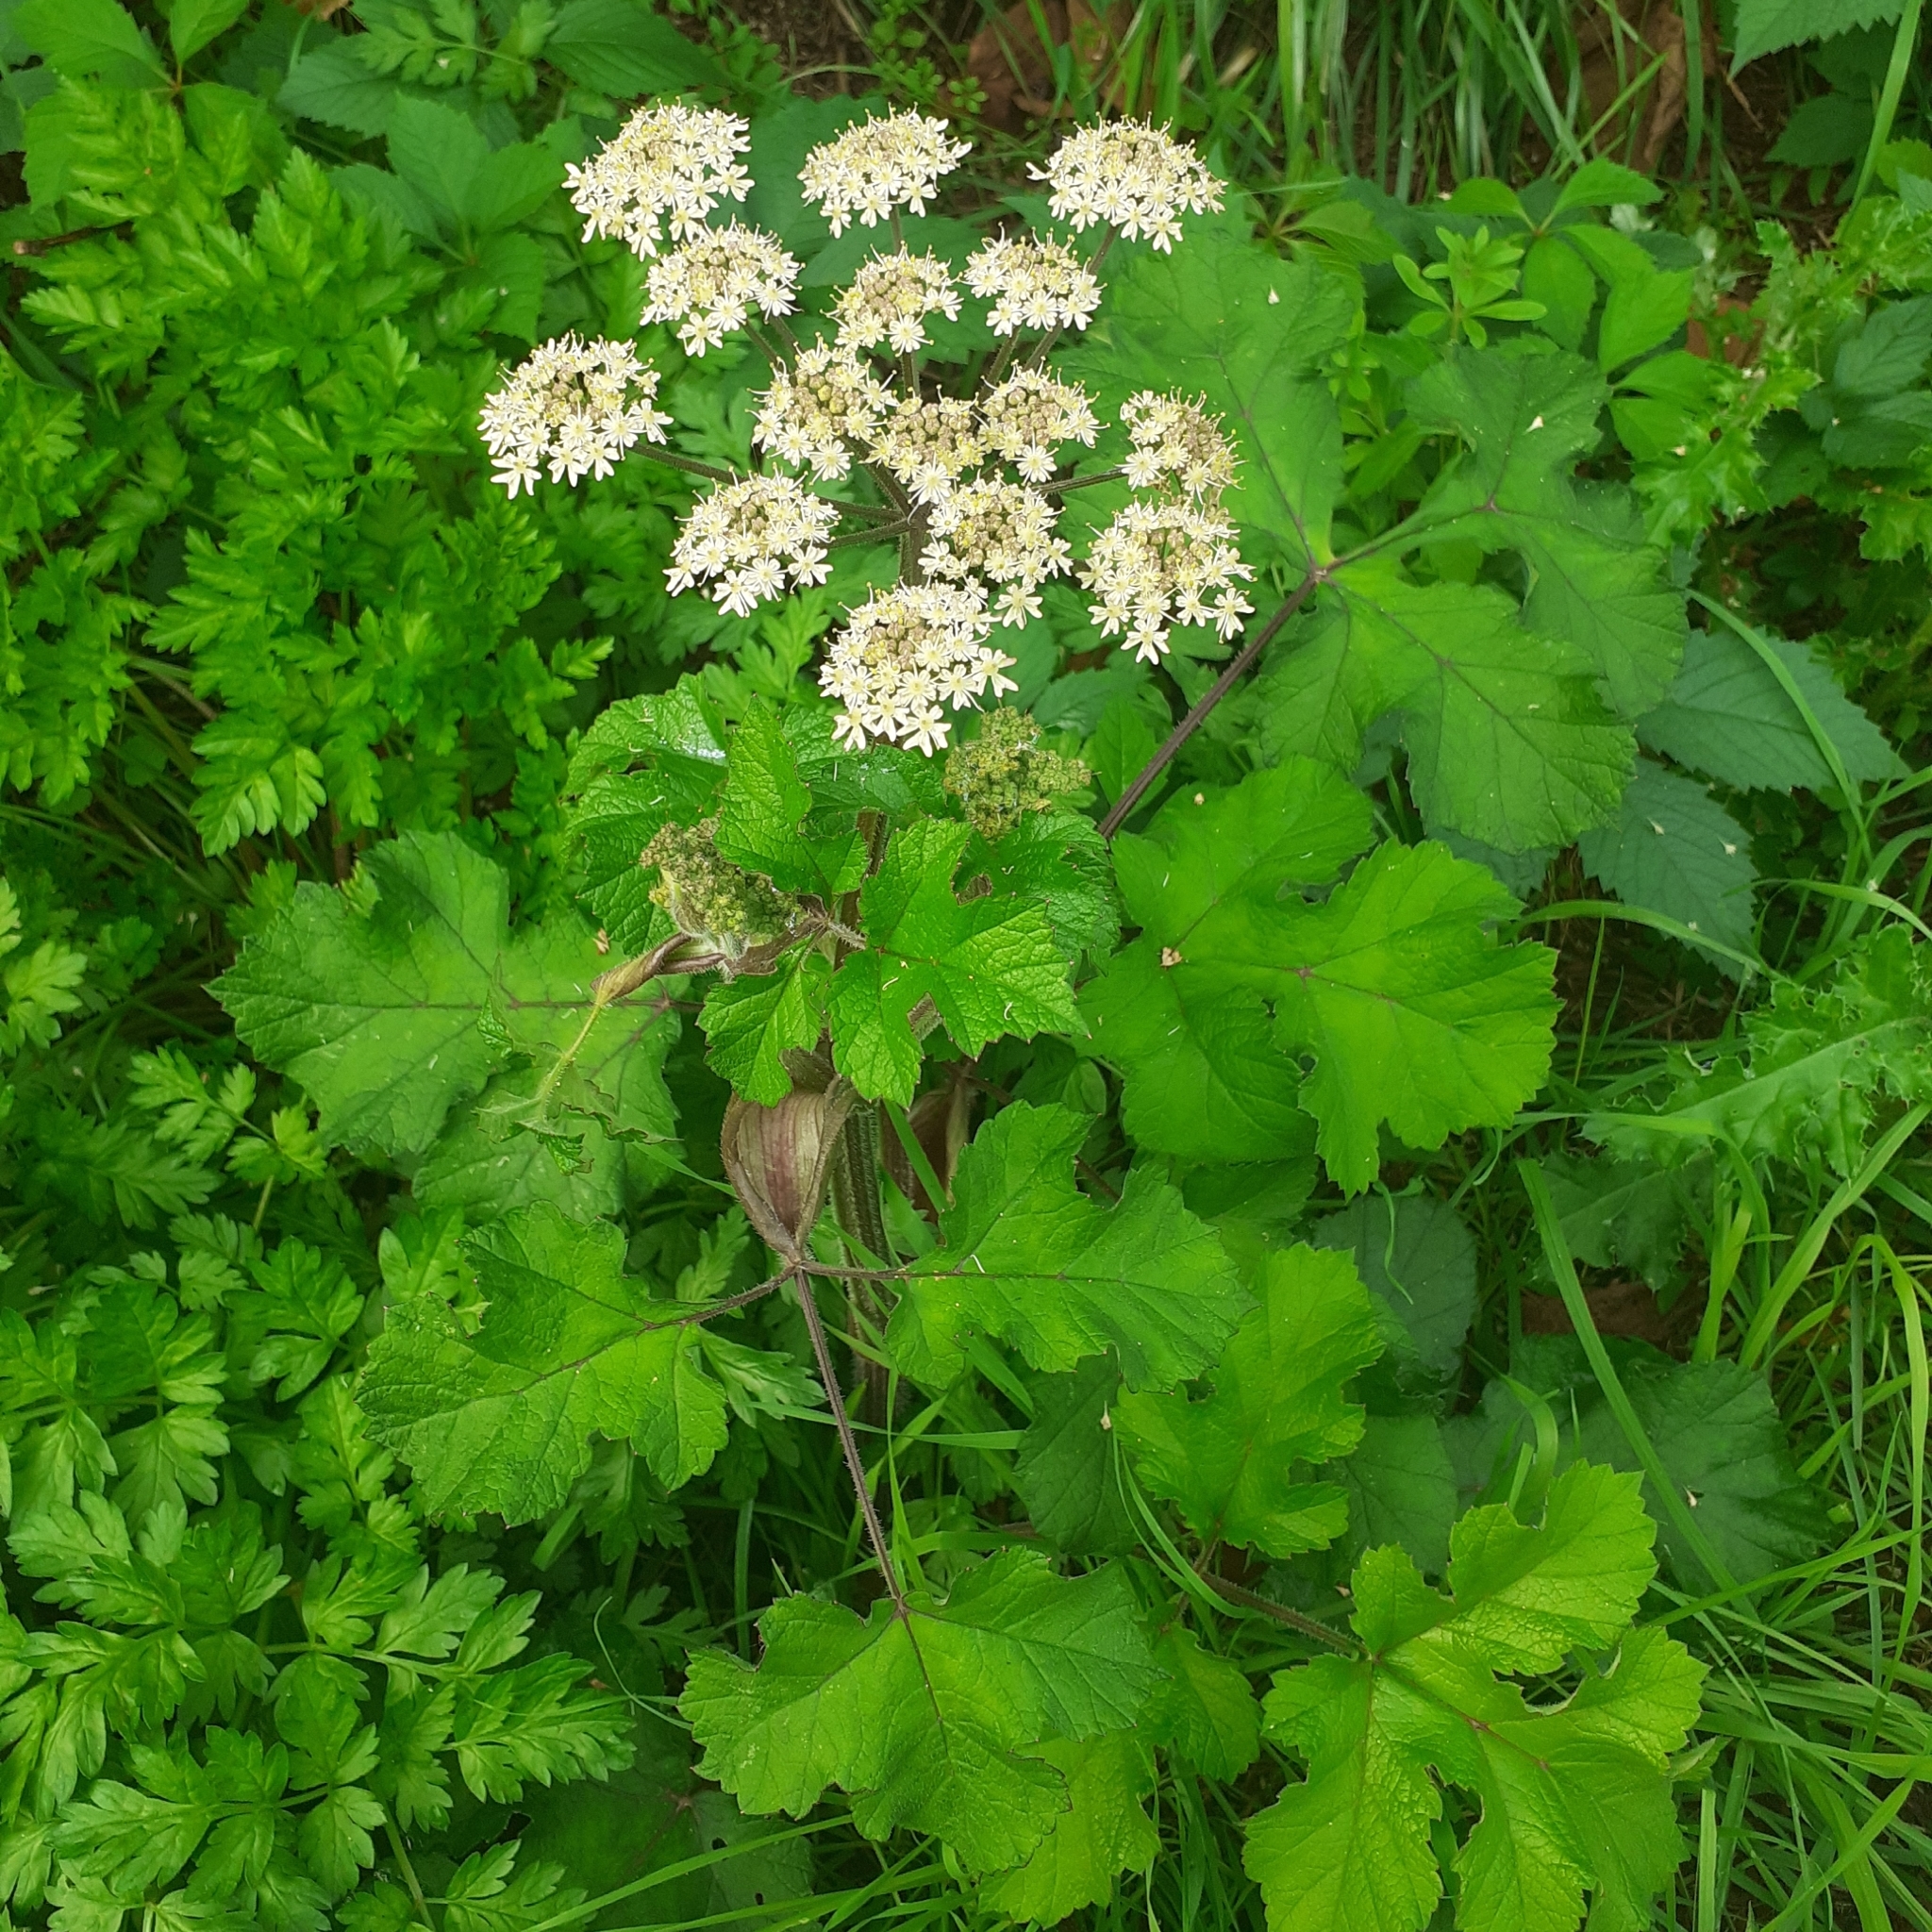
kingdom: Plantae
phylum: Tracheophyta
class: Magnoliopsida
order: Apiales
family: Apiaceae
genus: Heracleum
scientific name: Heracleum sphondylium
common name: Hogweed
